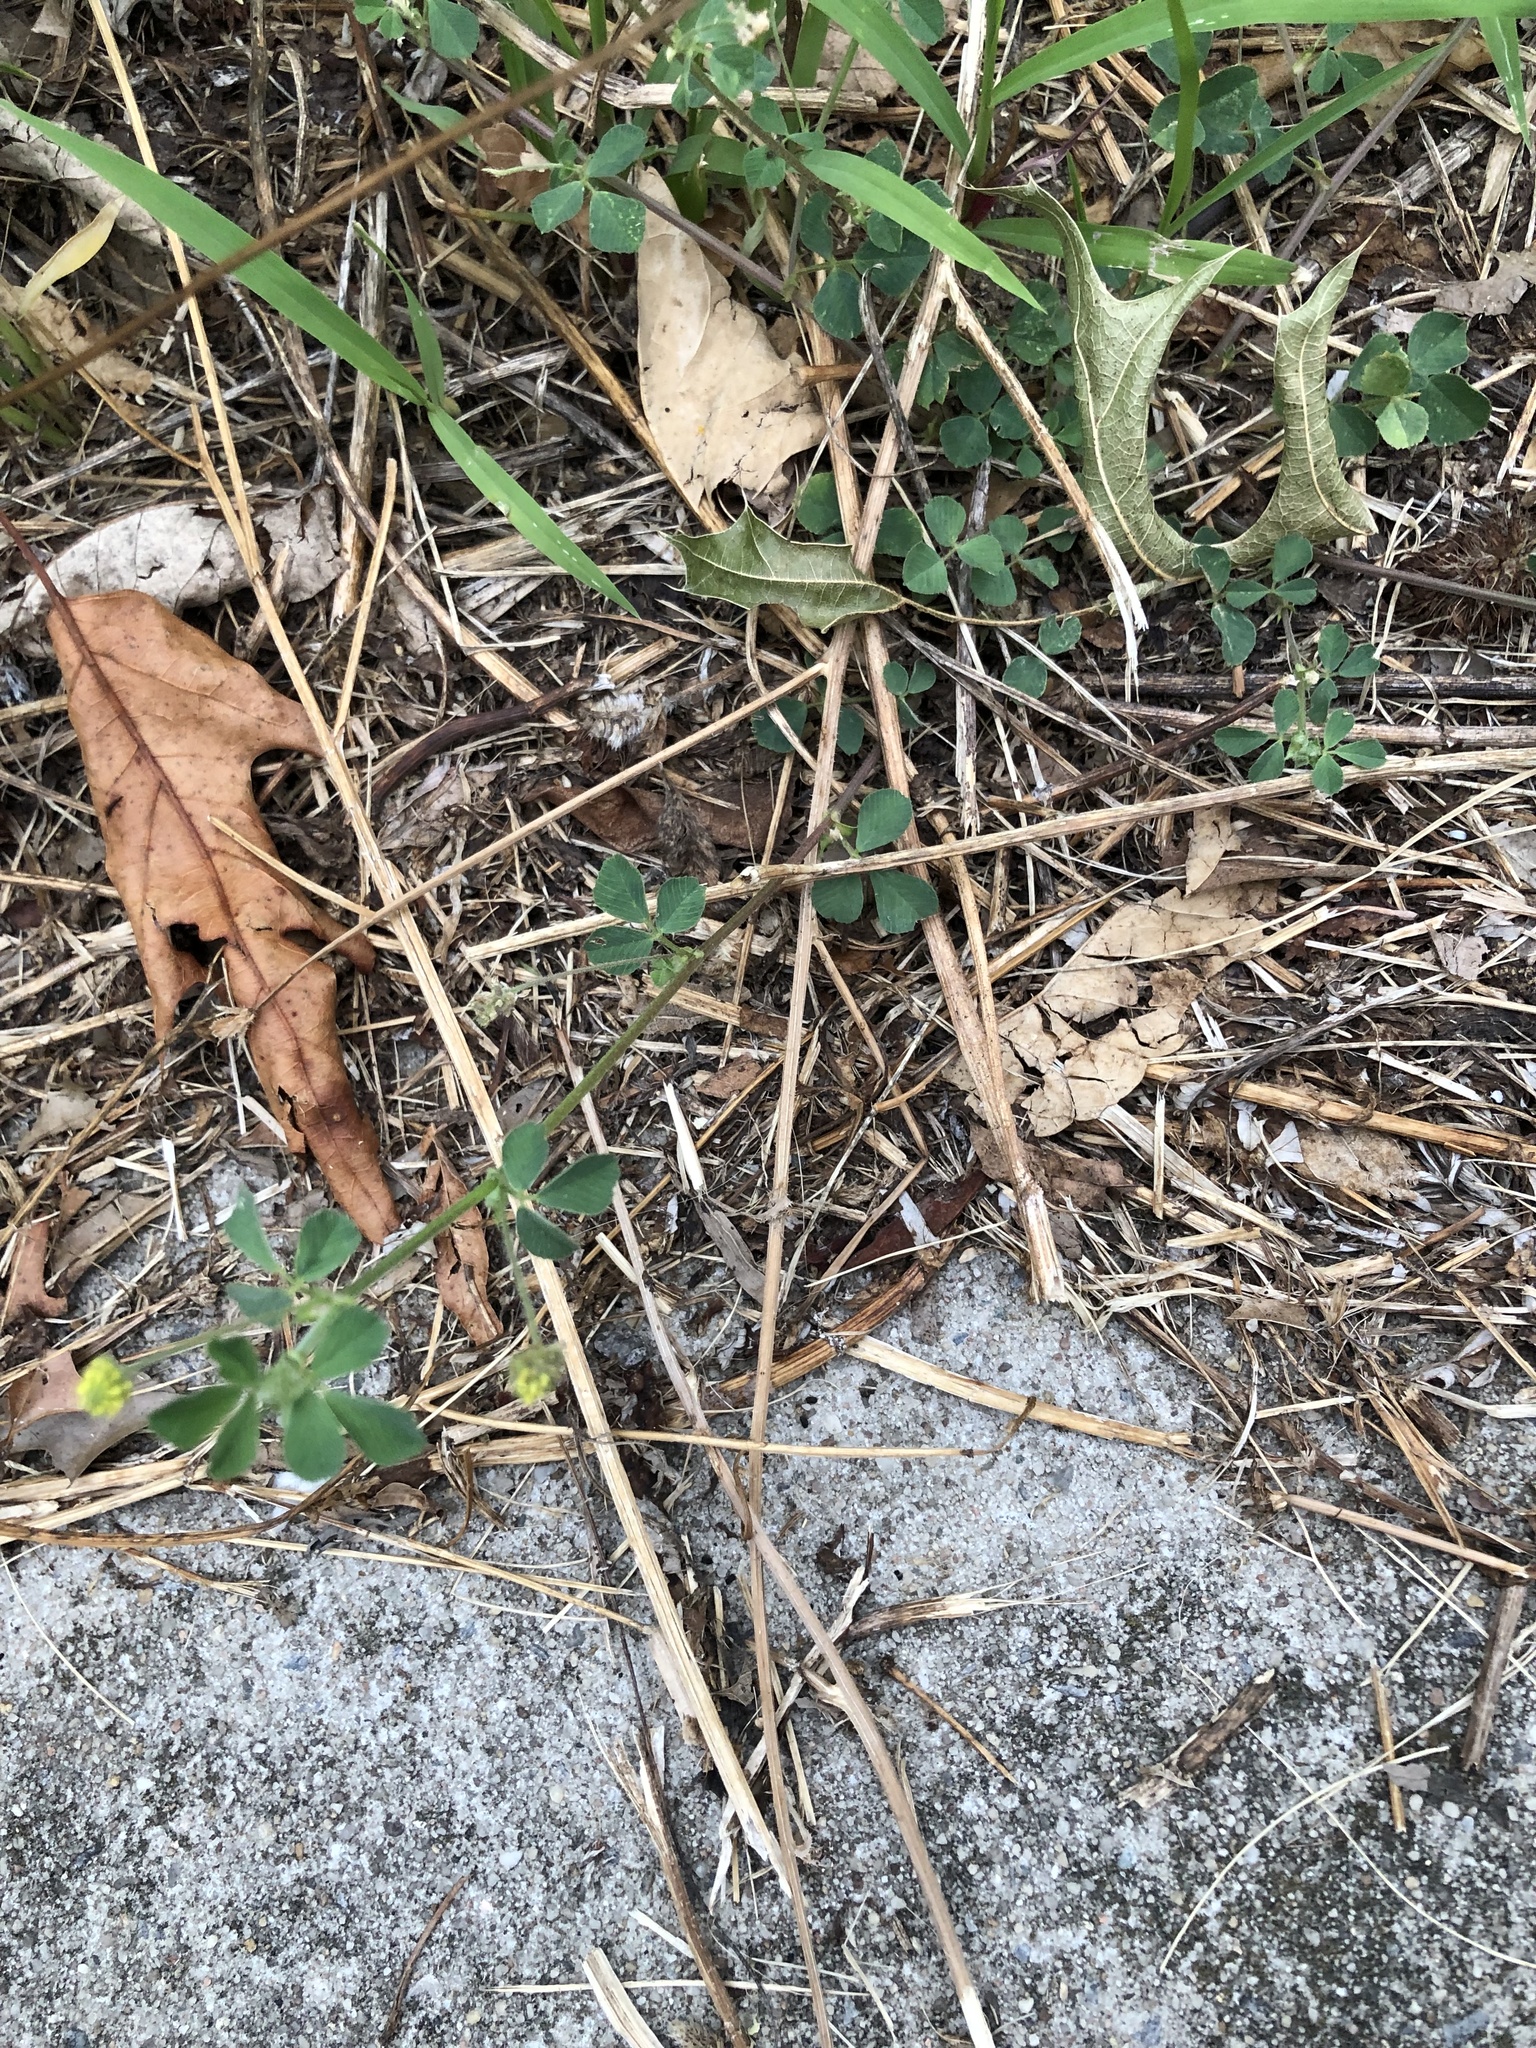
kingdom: Plantae
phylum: Tracheophyta
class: Magnoliopsida
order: Fabales
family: Fabaceae
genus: Medicago
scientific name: Medicago lupulina
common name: Black medick
